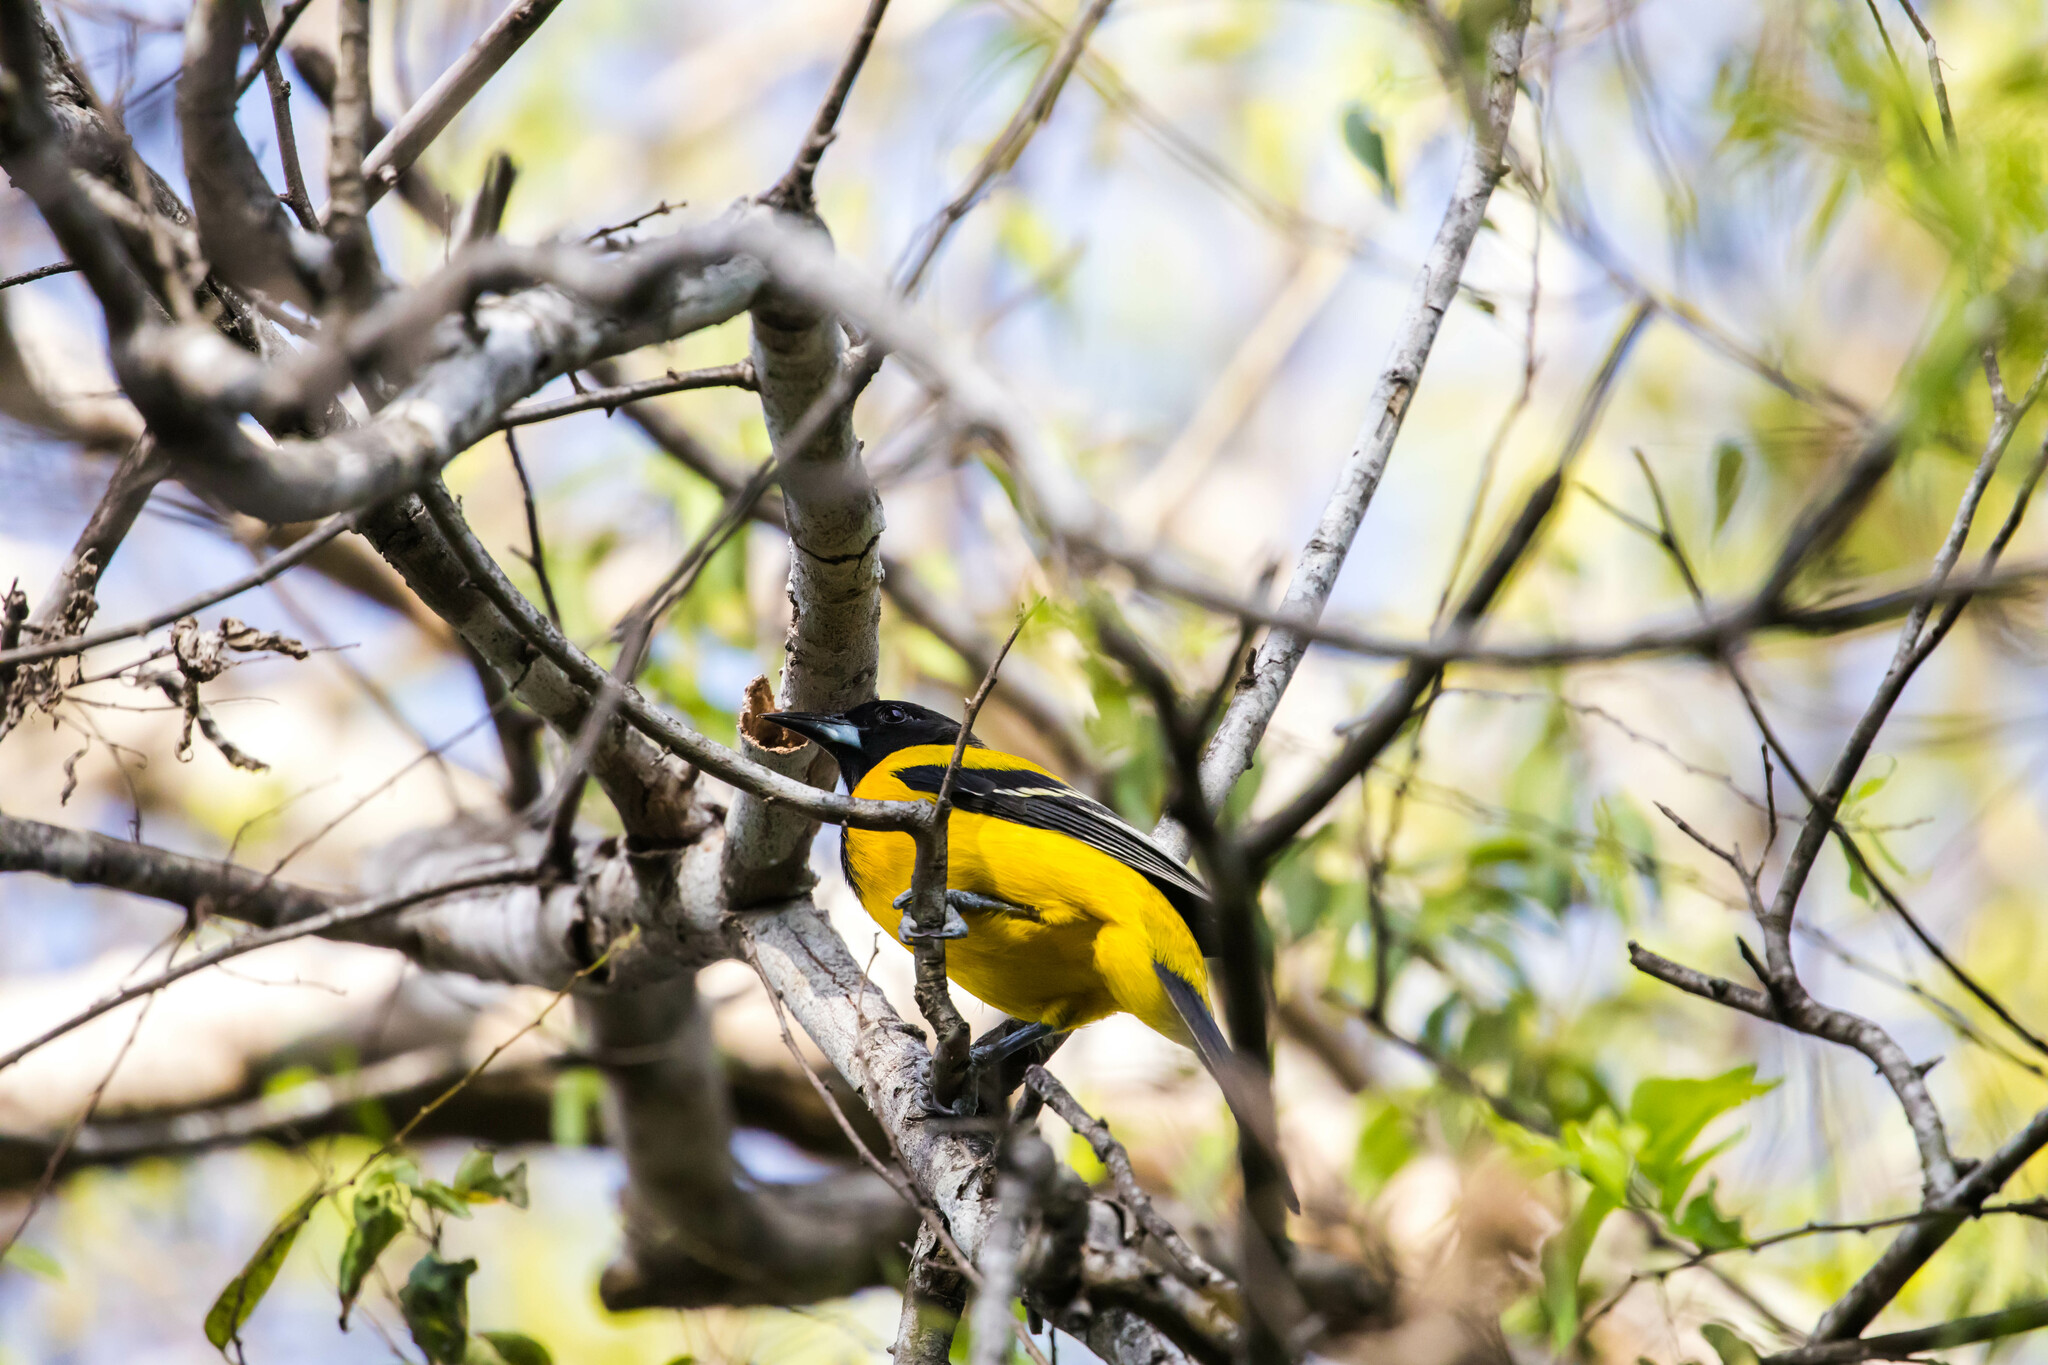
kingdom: Animalia
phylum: Chordata
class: Aves
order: Passeriformes
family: Icteridae
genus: Icterus
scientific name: Icterus graduacauda
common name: Audubon's oriole
